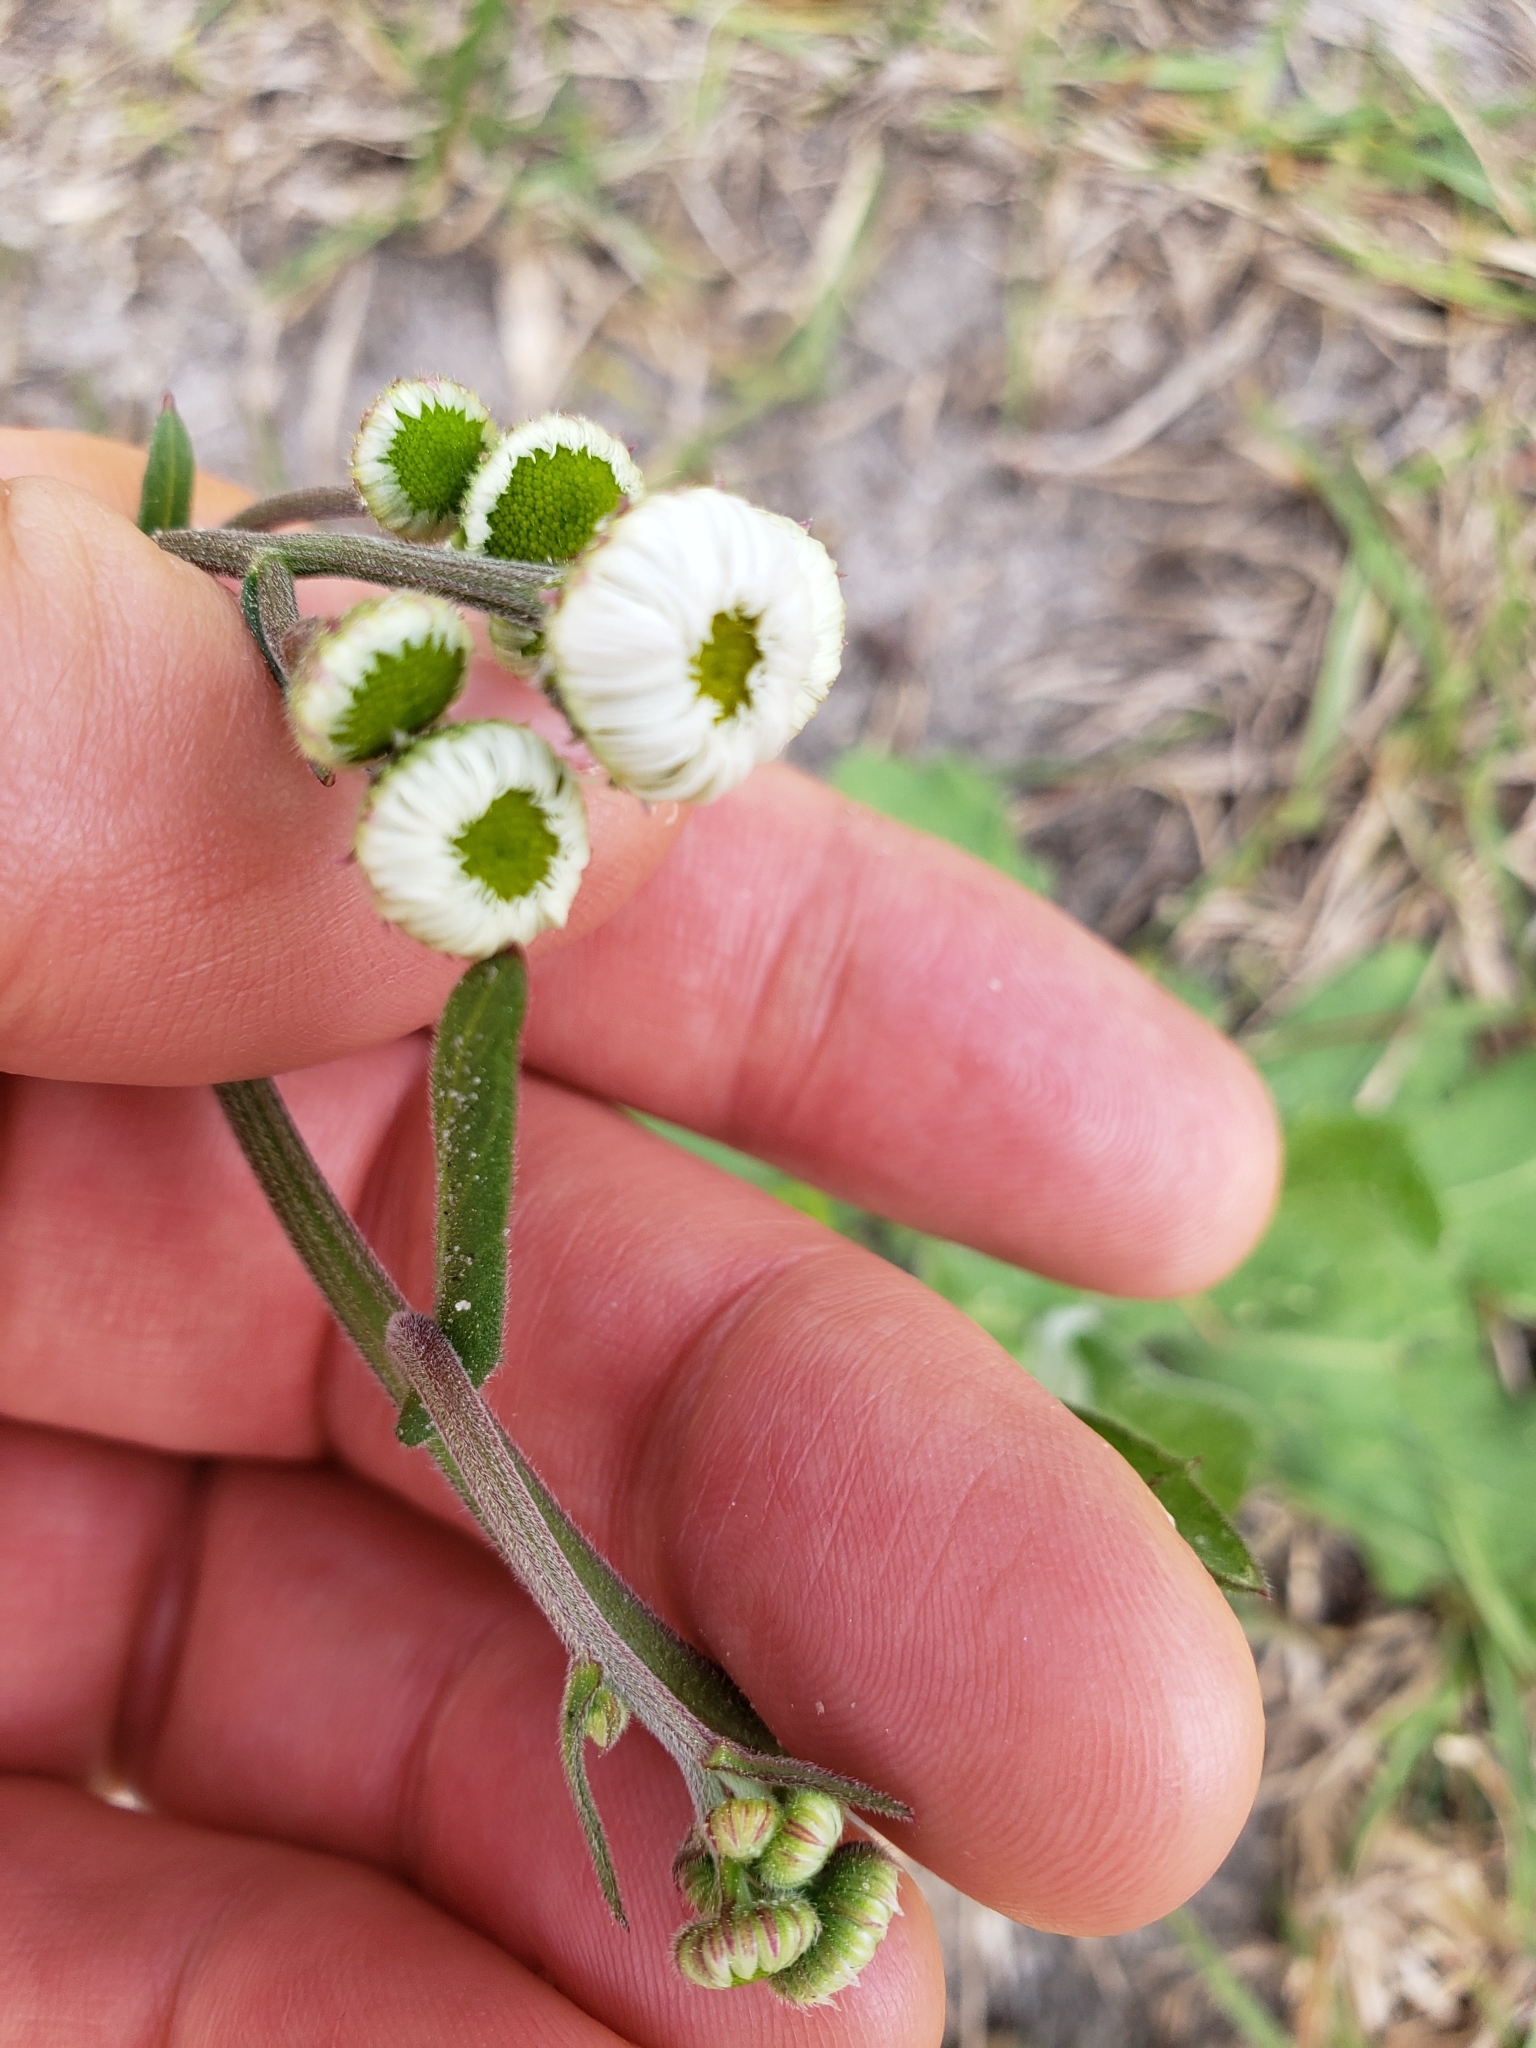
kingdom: Plantae
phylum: Tracheophyta
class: Magnoliopsida
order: Asterales
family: Asteraceae
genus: Erigeron
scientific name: Erigeron quercifolius
